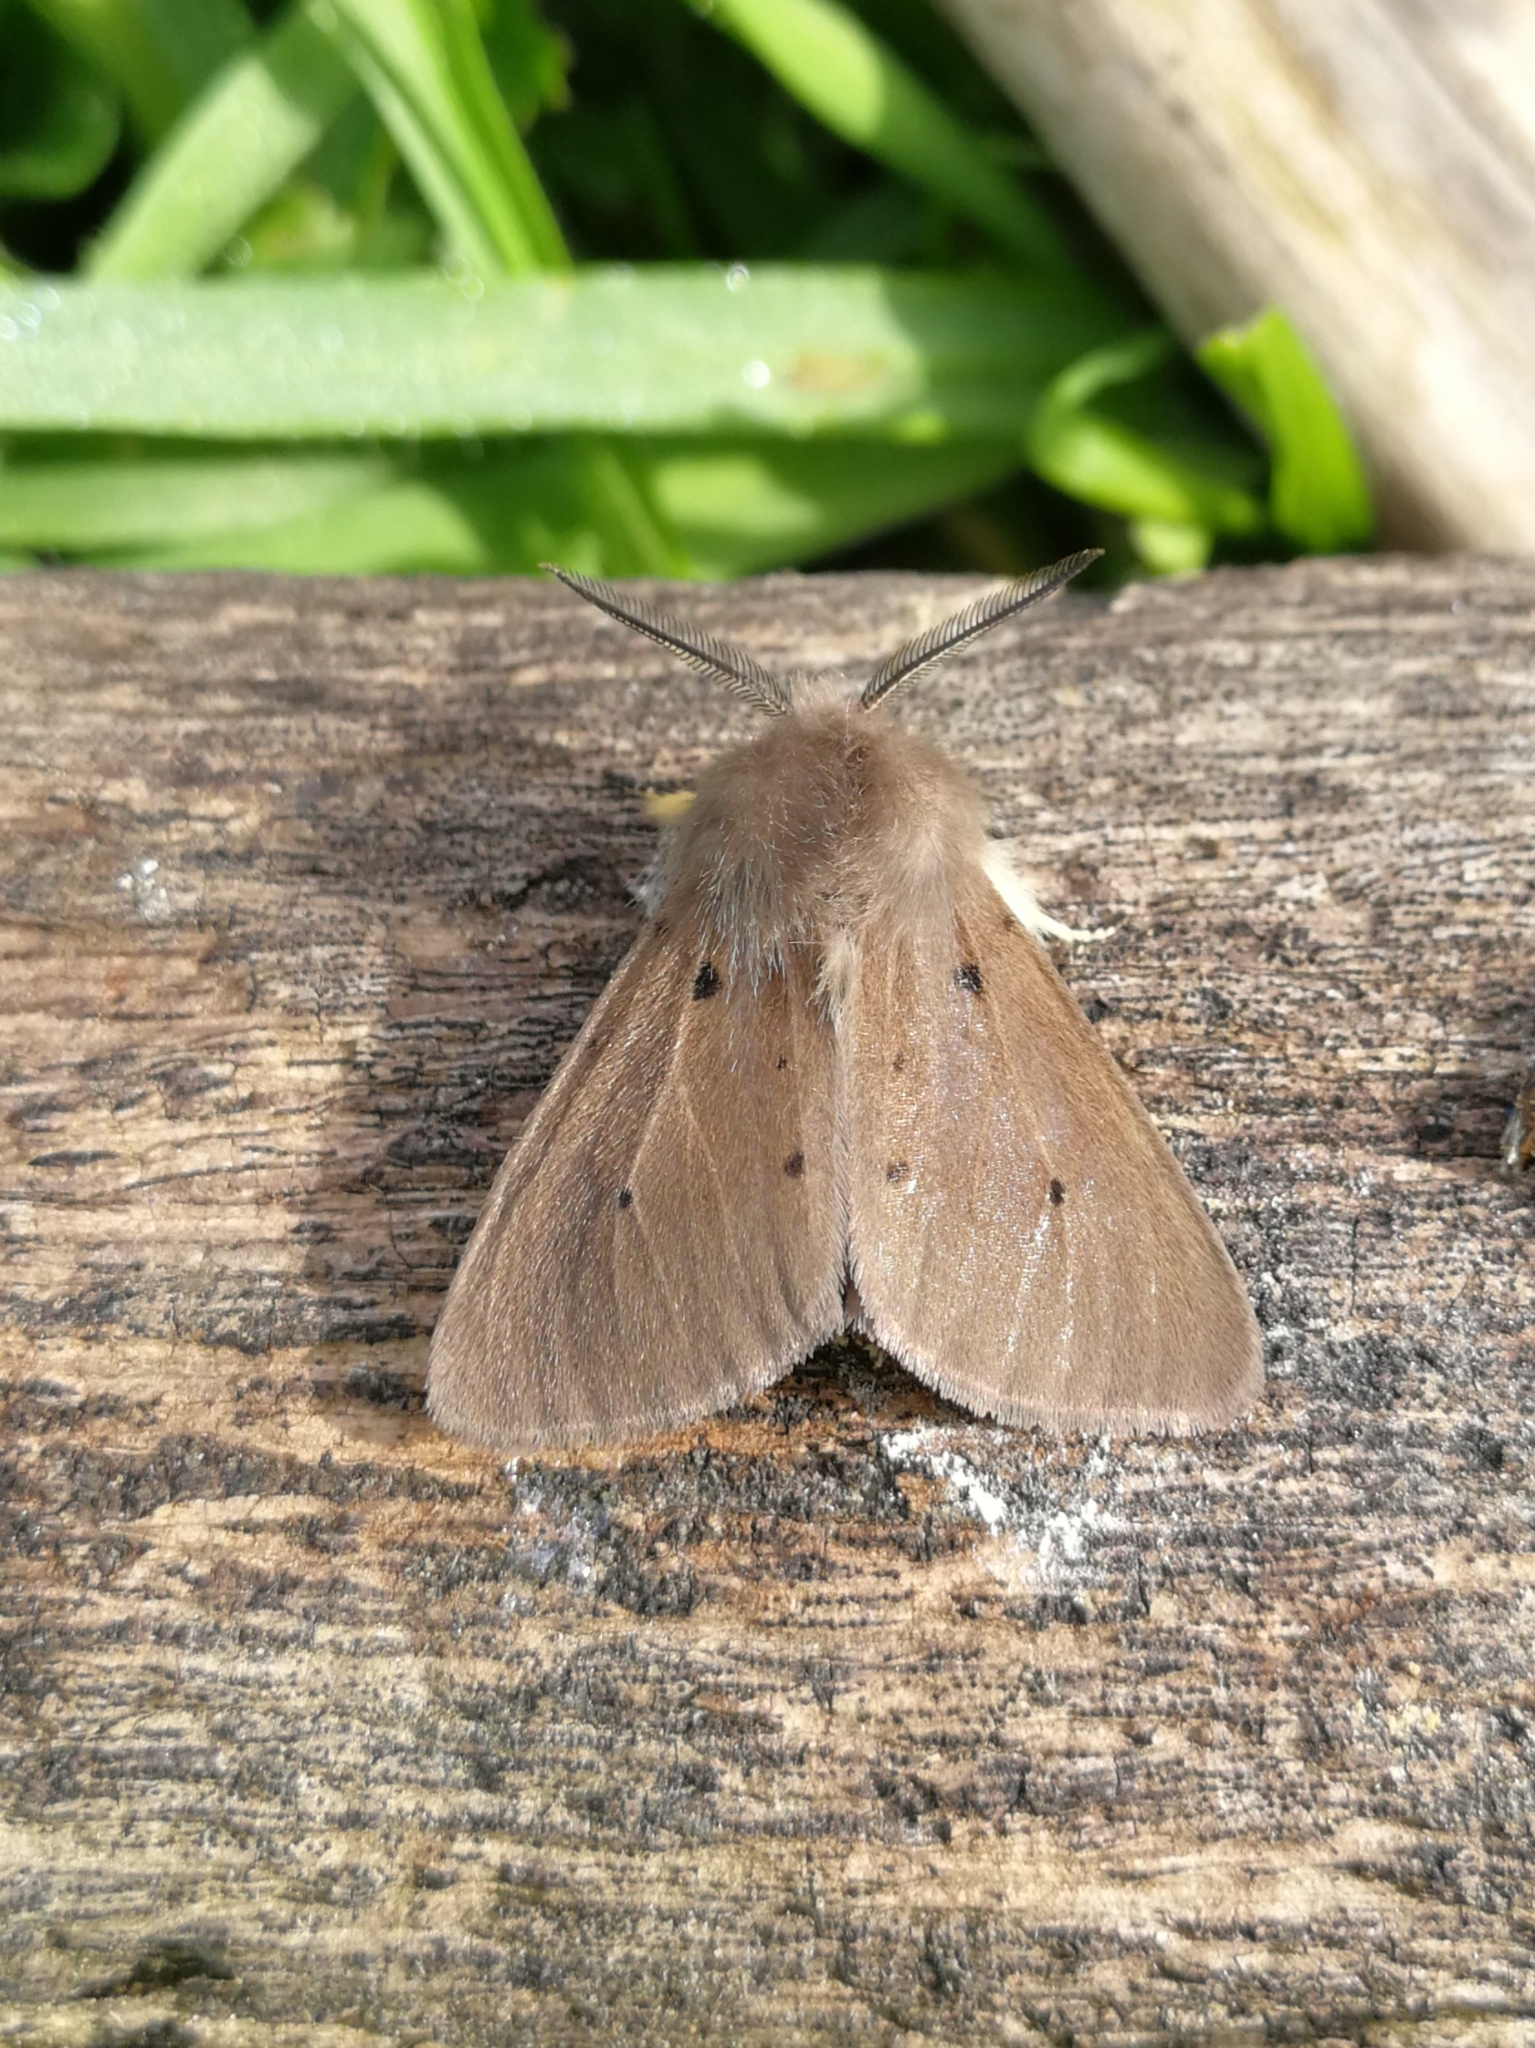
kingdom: Animalia
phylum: Arthropoda
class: Insecta
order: Lepidoptera
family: Erebidae
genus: Diaphora
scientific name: Diaphora mendica
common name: Muslin moth
